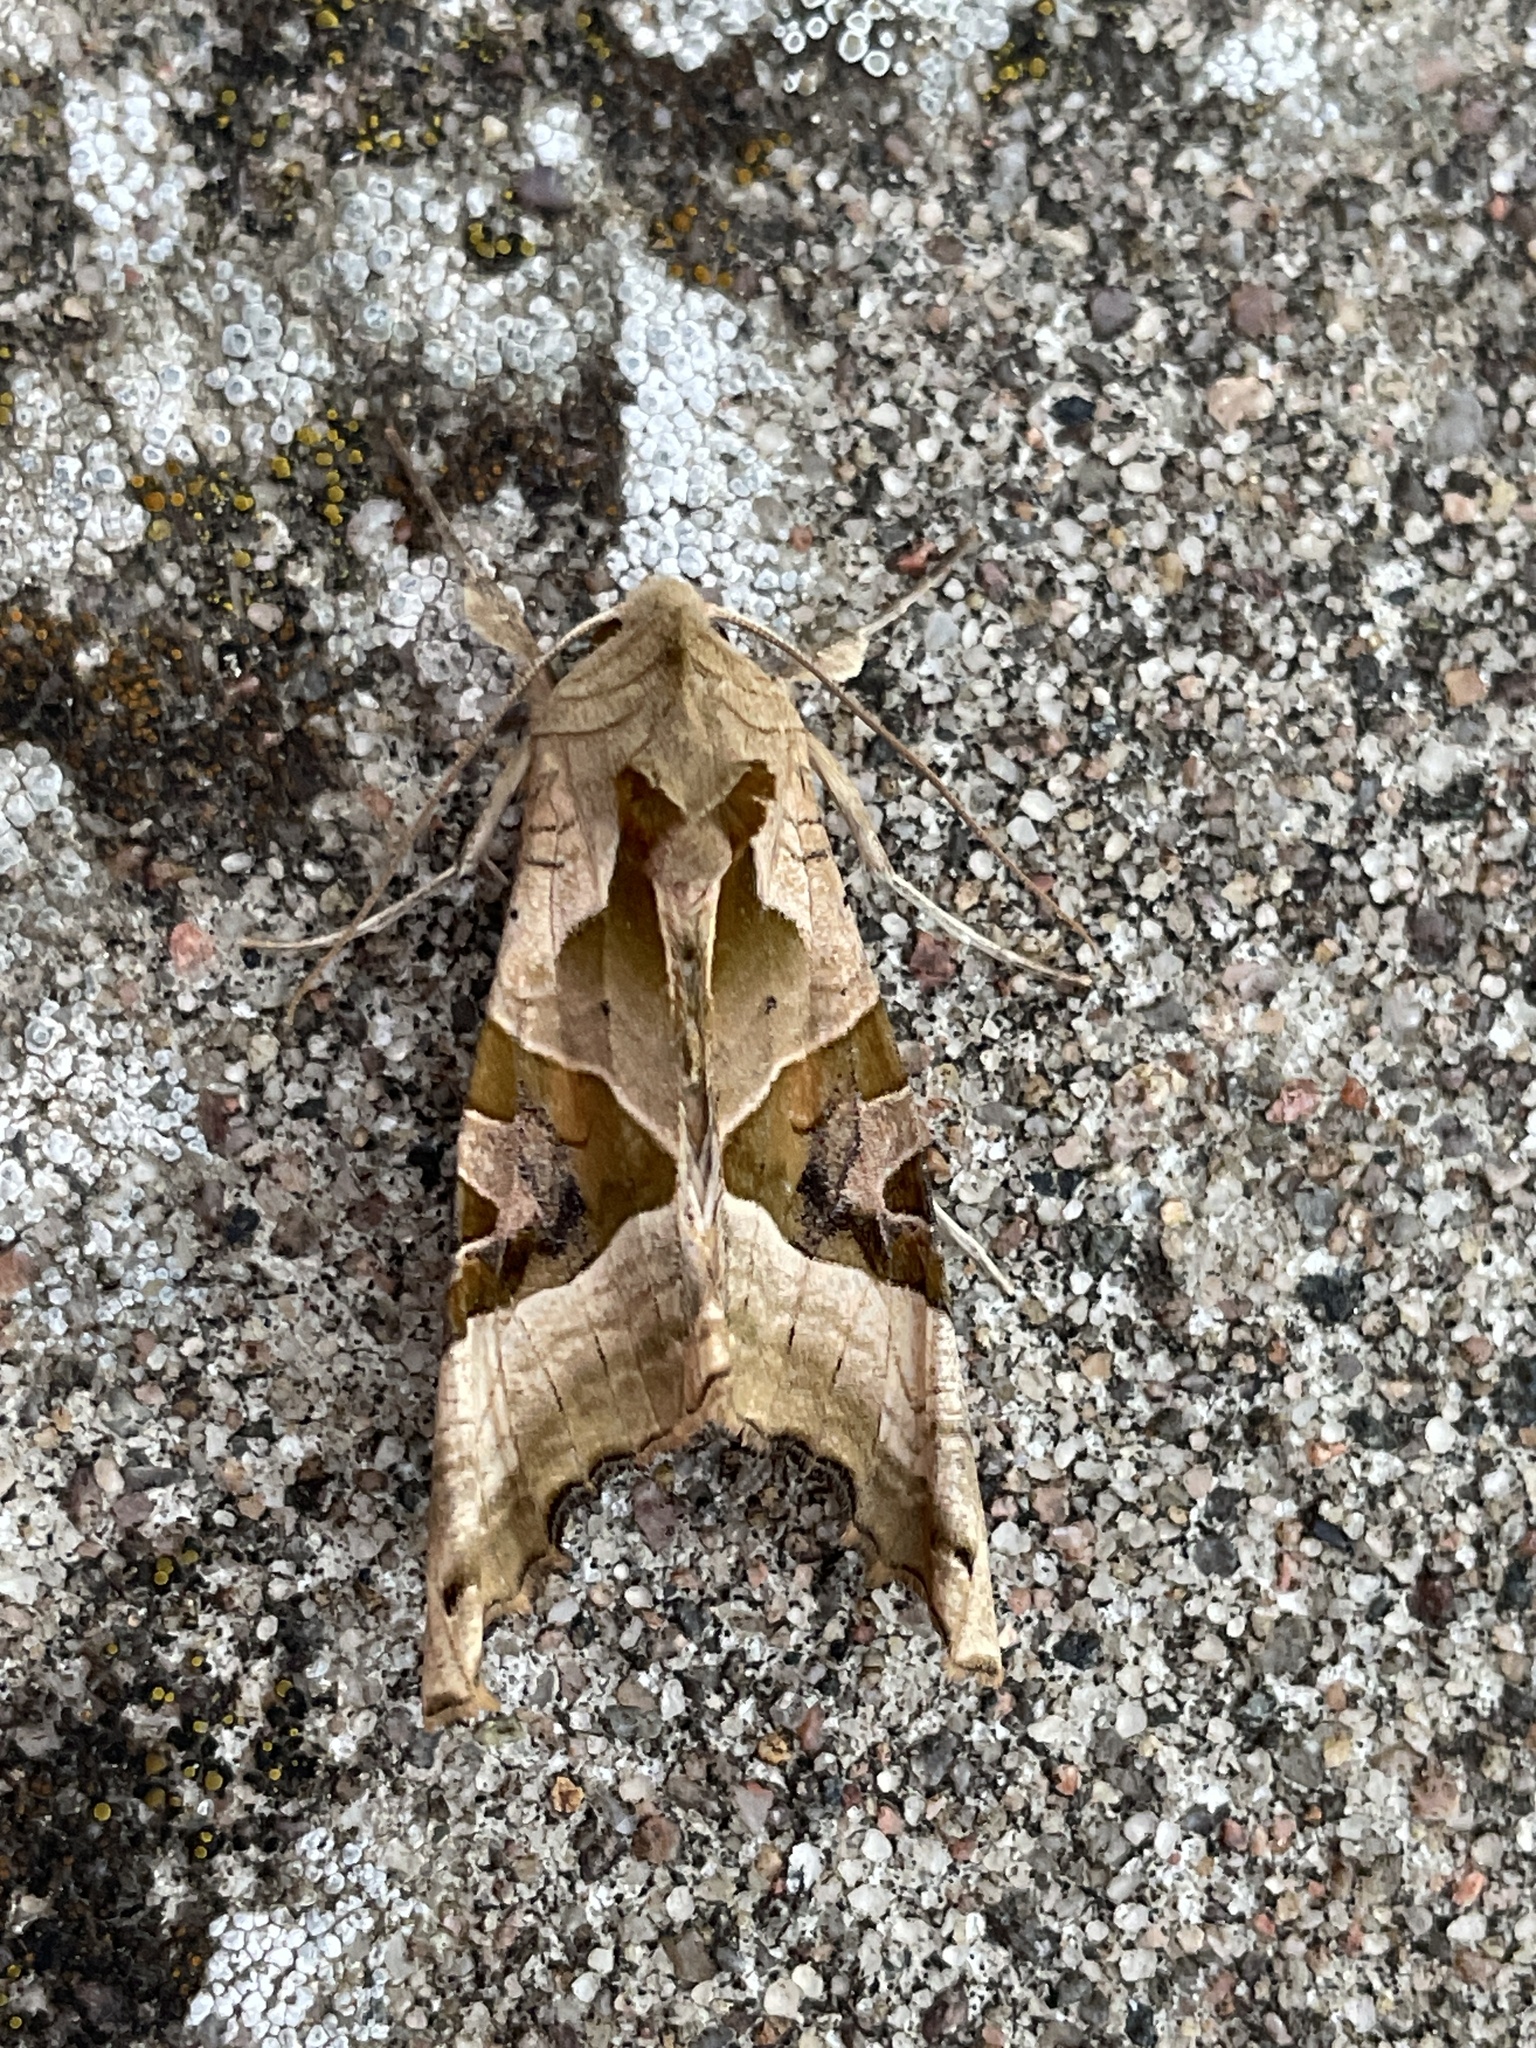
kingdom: Animalia
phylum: Arthropoda
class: Insecta
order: Lepidoptera
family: Noctuidae
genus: Phlogophora
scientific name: Phlogophora meticulosa
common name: Angle shades
